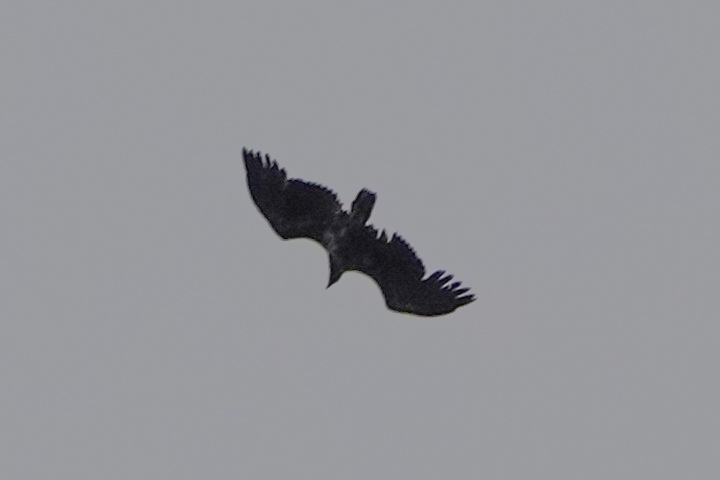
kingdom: Animalia
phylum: Chordata
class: Aves
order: Accipitriformes
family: Accipitridae
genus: Haliaeetus
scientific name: Haliaeetus albicilla
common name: White-tailed eagle
